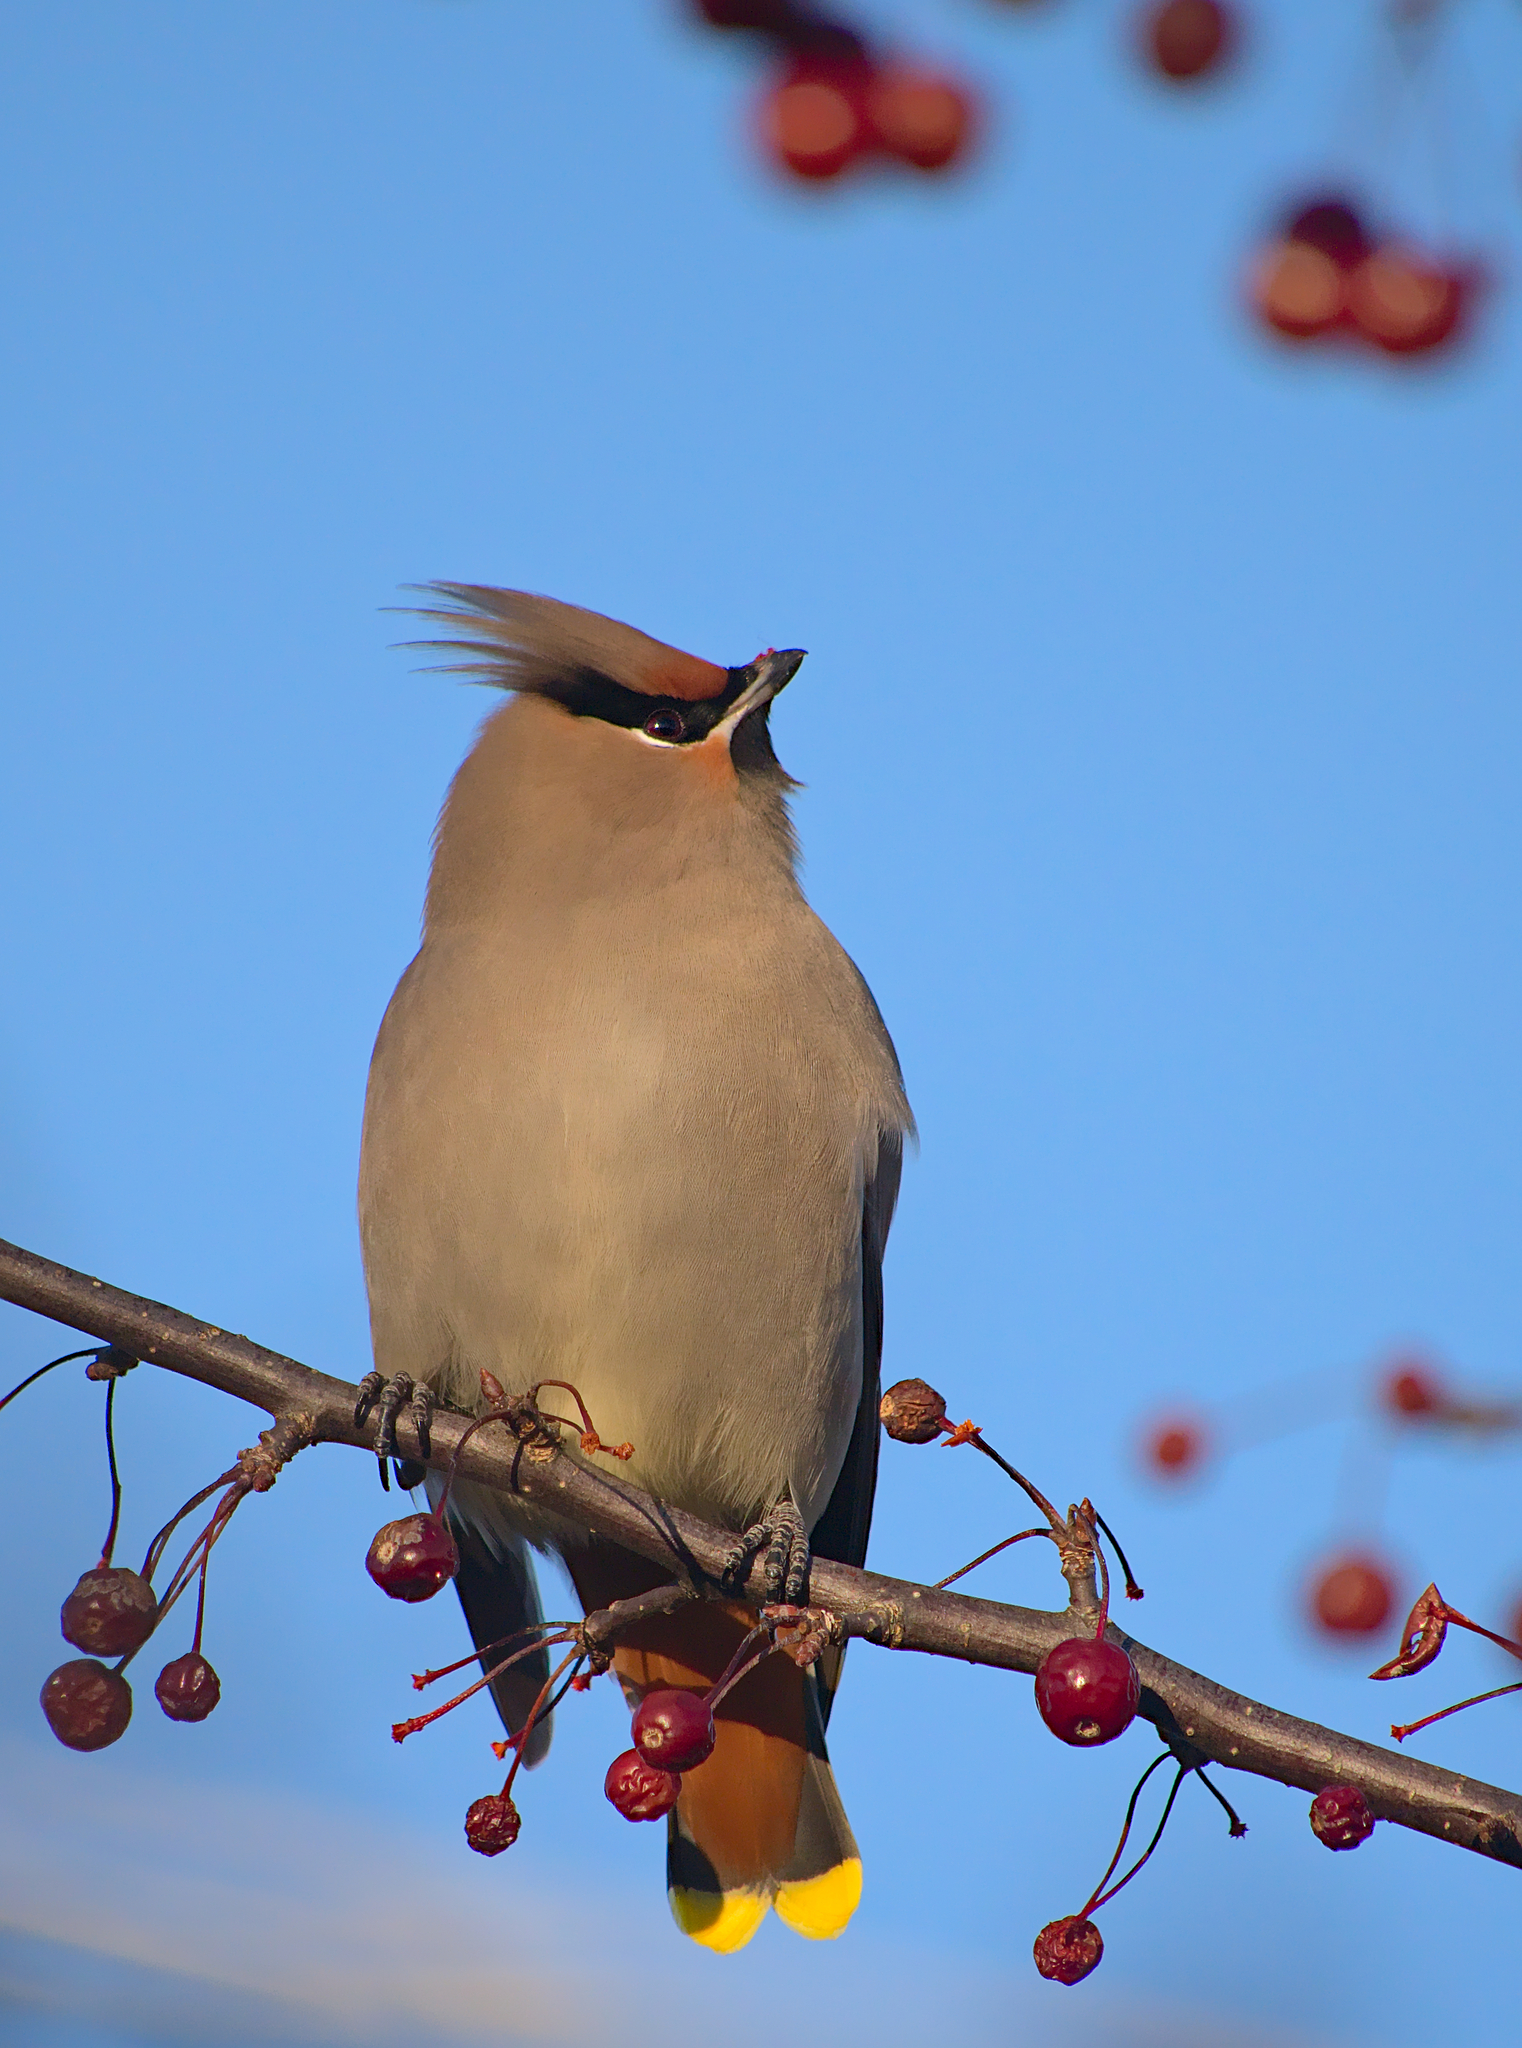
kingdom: Animalia
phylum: Chordata
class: Aves
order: Passeriformes
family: Bombycillidae
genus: Bombycilla
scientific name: Bombycilla garrulus
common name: Bohemian waxwing
